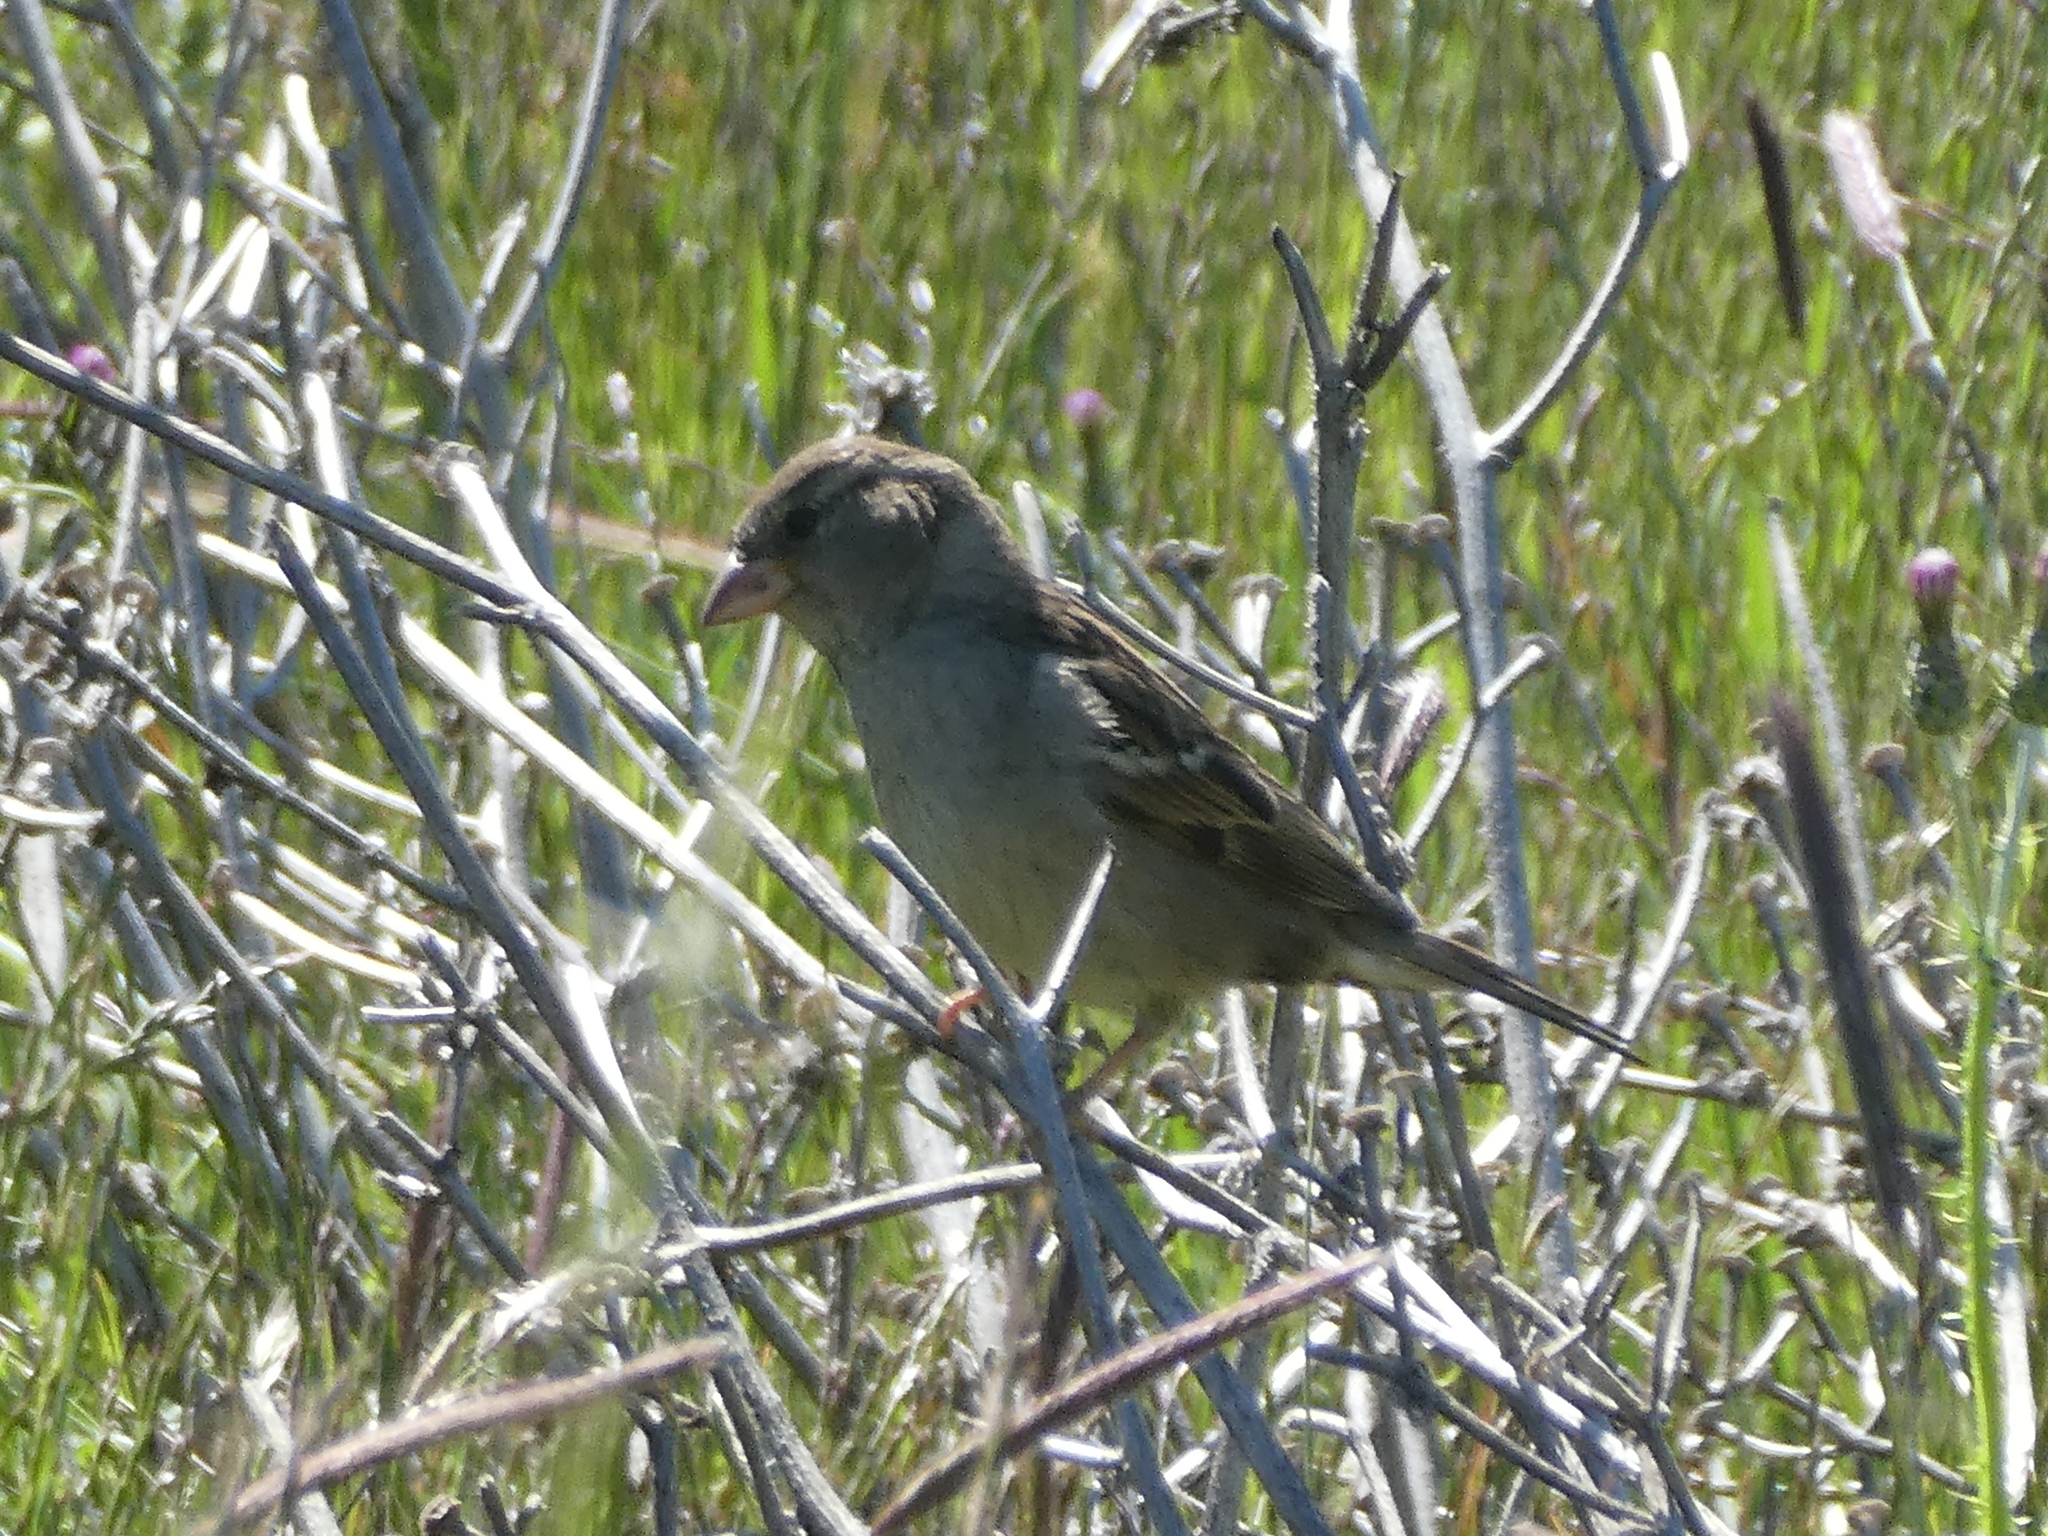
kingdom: Animalia
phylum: Chordata
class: Aves
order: Passeriformes
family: Passeridae
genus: Passer
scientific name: Passer domesticus
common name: House sparrow
